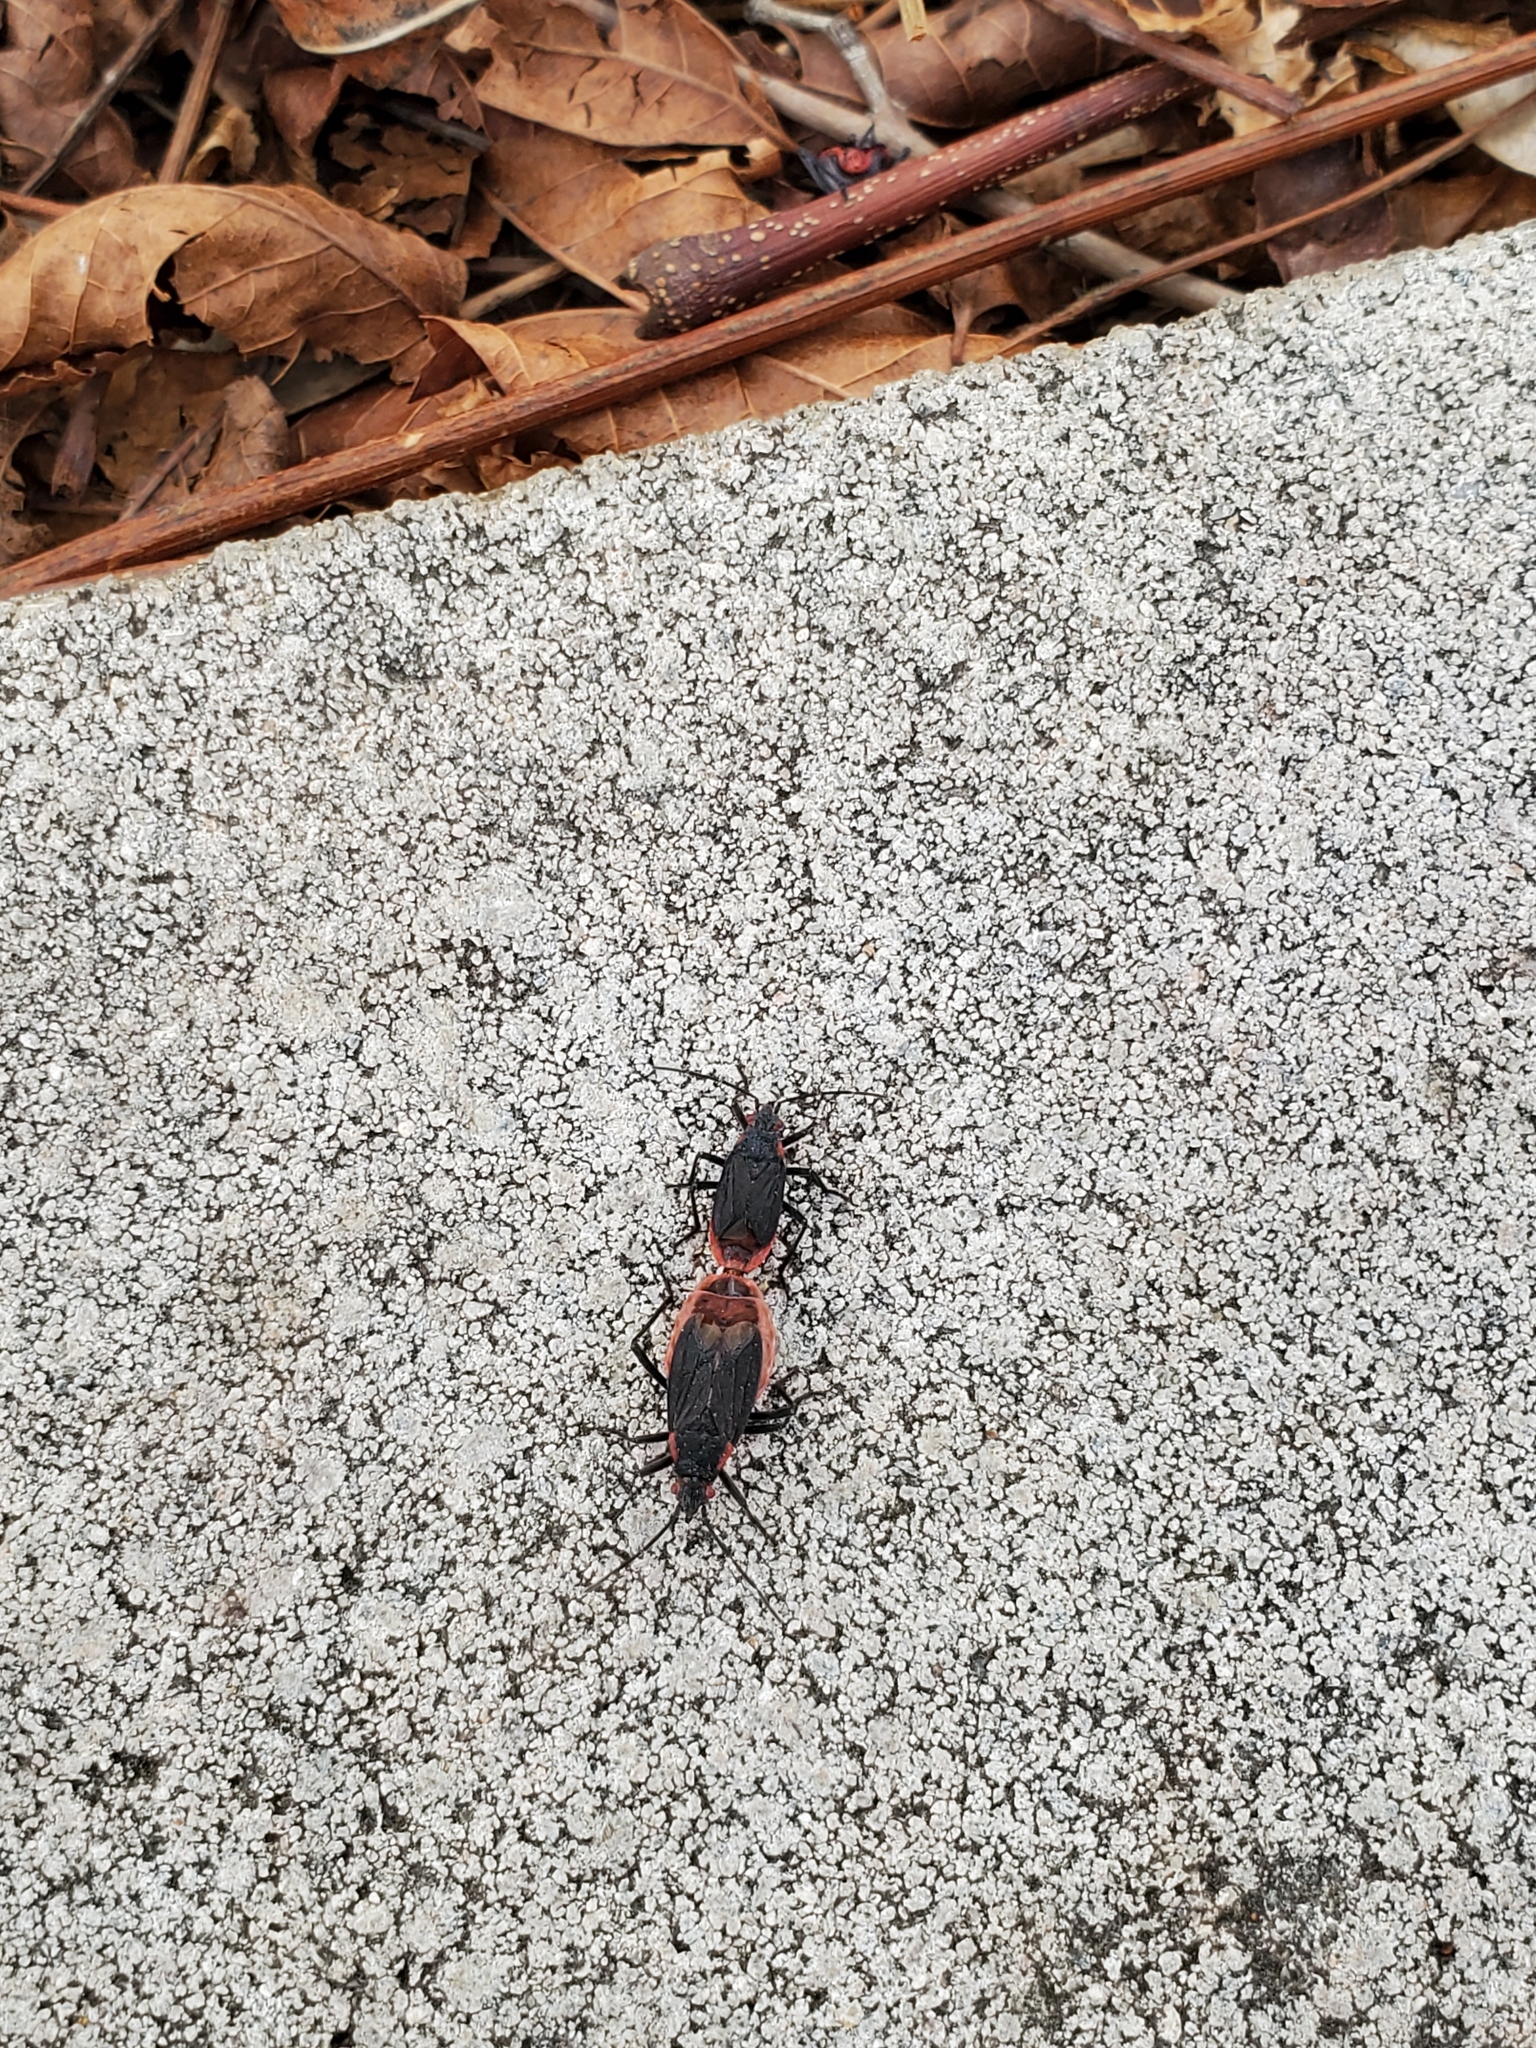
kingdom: Animalia
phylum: Arthropoda
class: Insecta
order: Hemiptera
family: Rhopalidae
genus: Jadera
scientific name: Jadera haematoloma
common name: Red-shouldered bug
